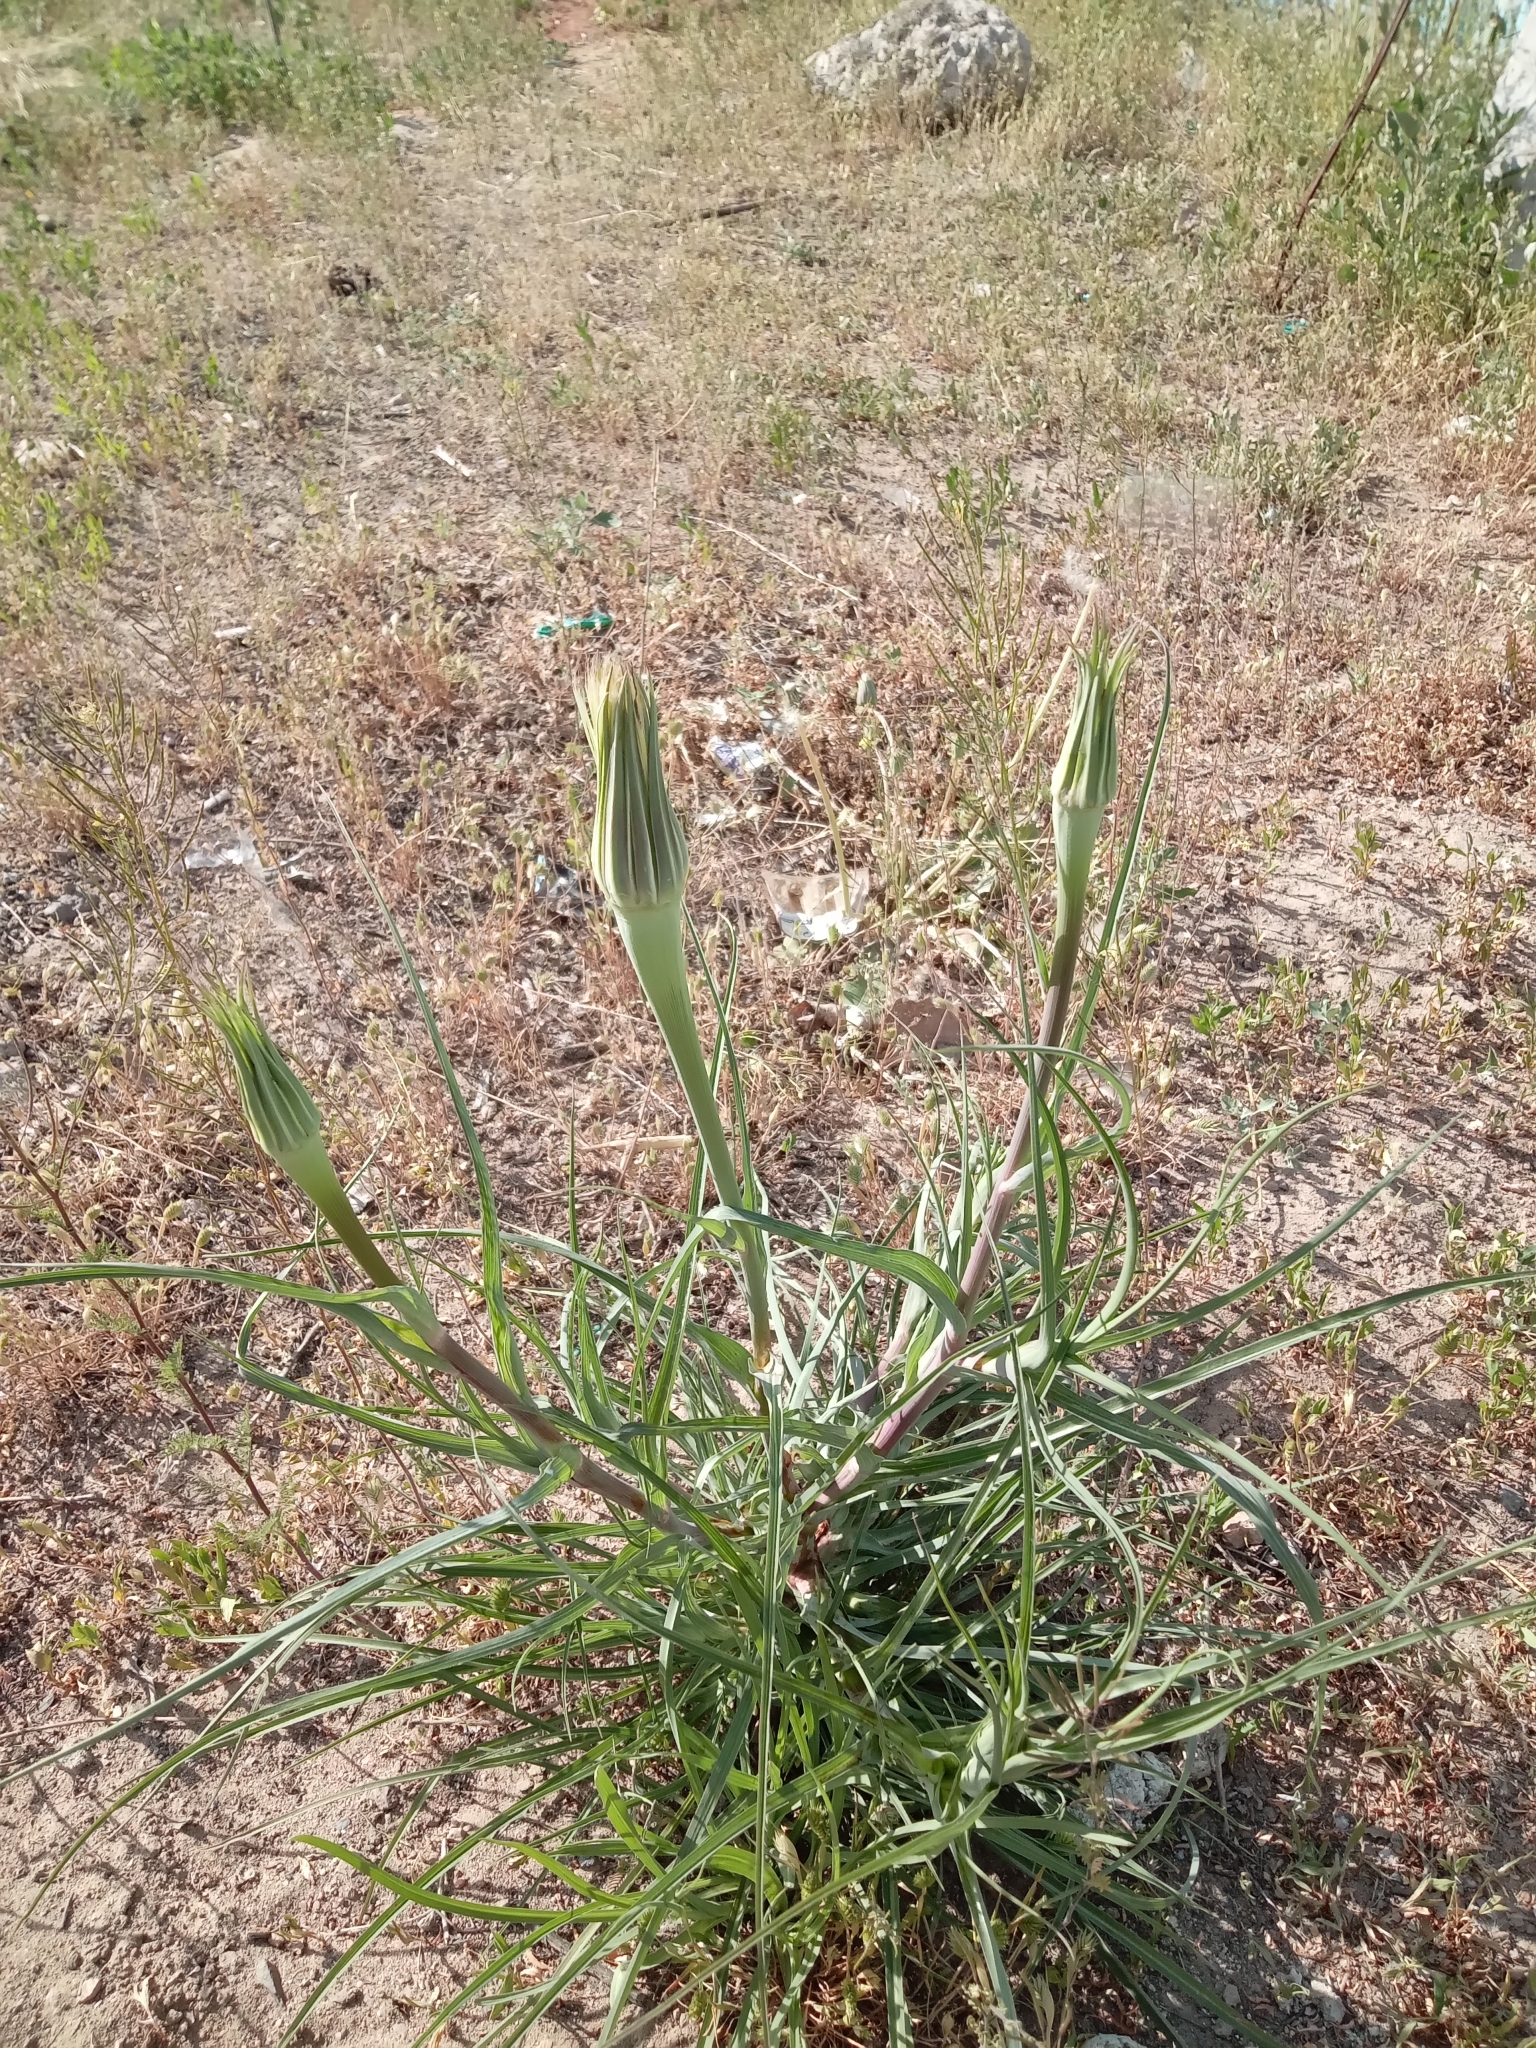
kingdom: Plantae
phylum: Tracheophyta
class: Magnoliopsida
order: Asterales
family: Asteraceae
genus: Tragopogon
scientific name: Tragopogon ruber
